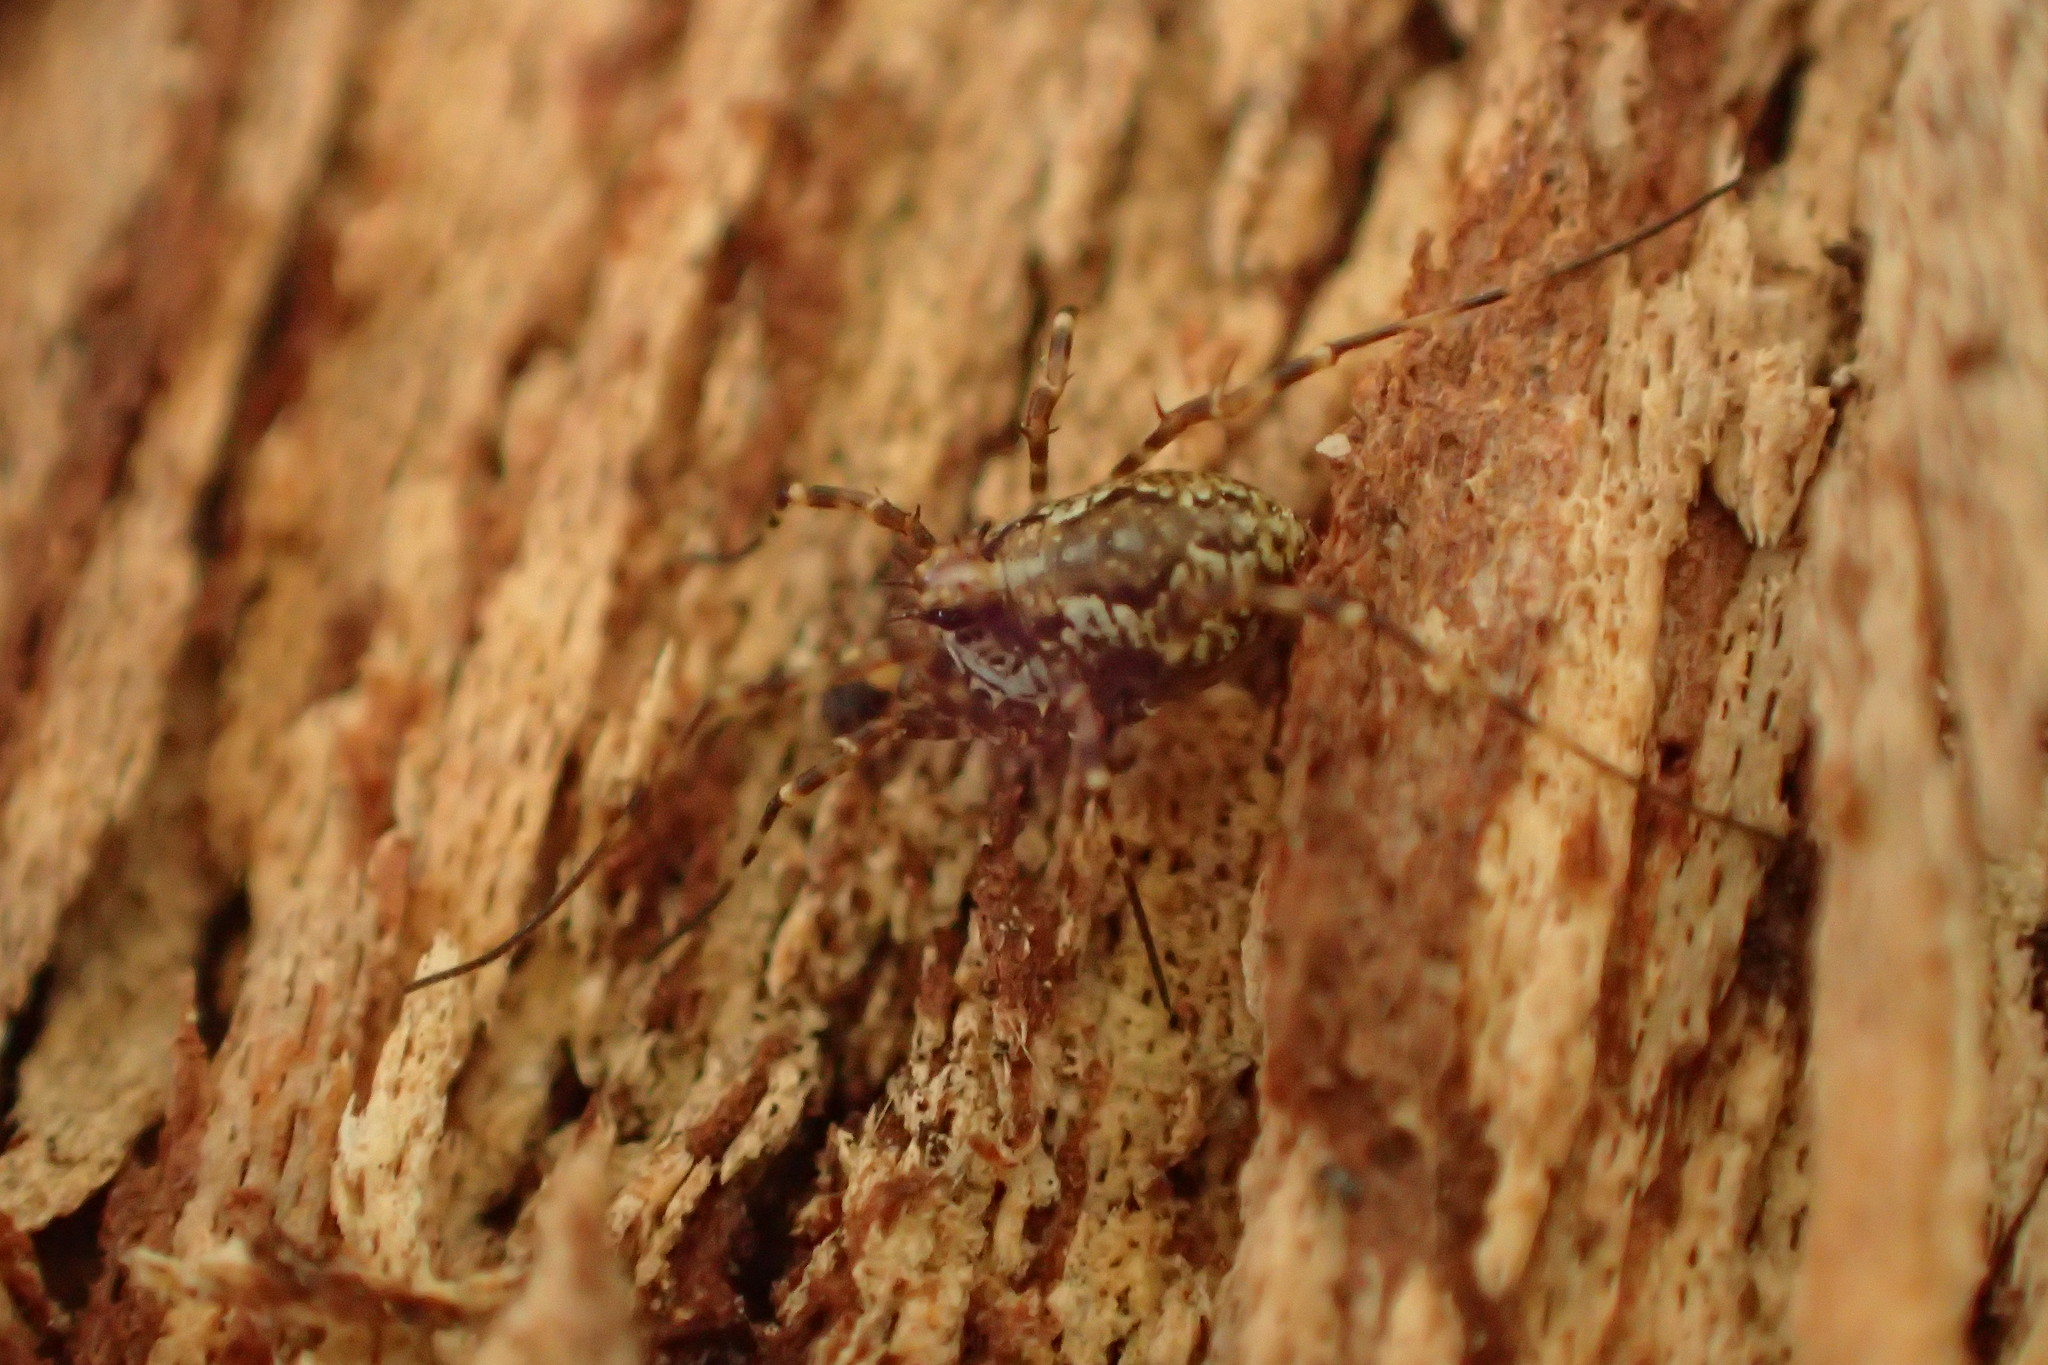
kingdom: Animalia
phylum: Arthropoda
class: Arachnida
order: Opiliones
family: Phalangiidae
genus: Megabunus
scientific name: Megabunus diadema
